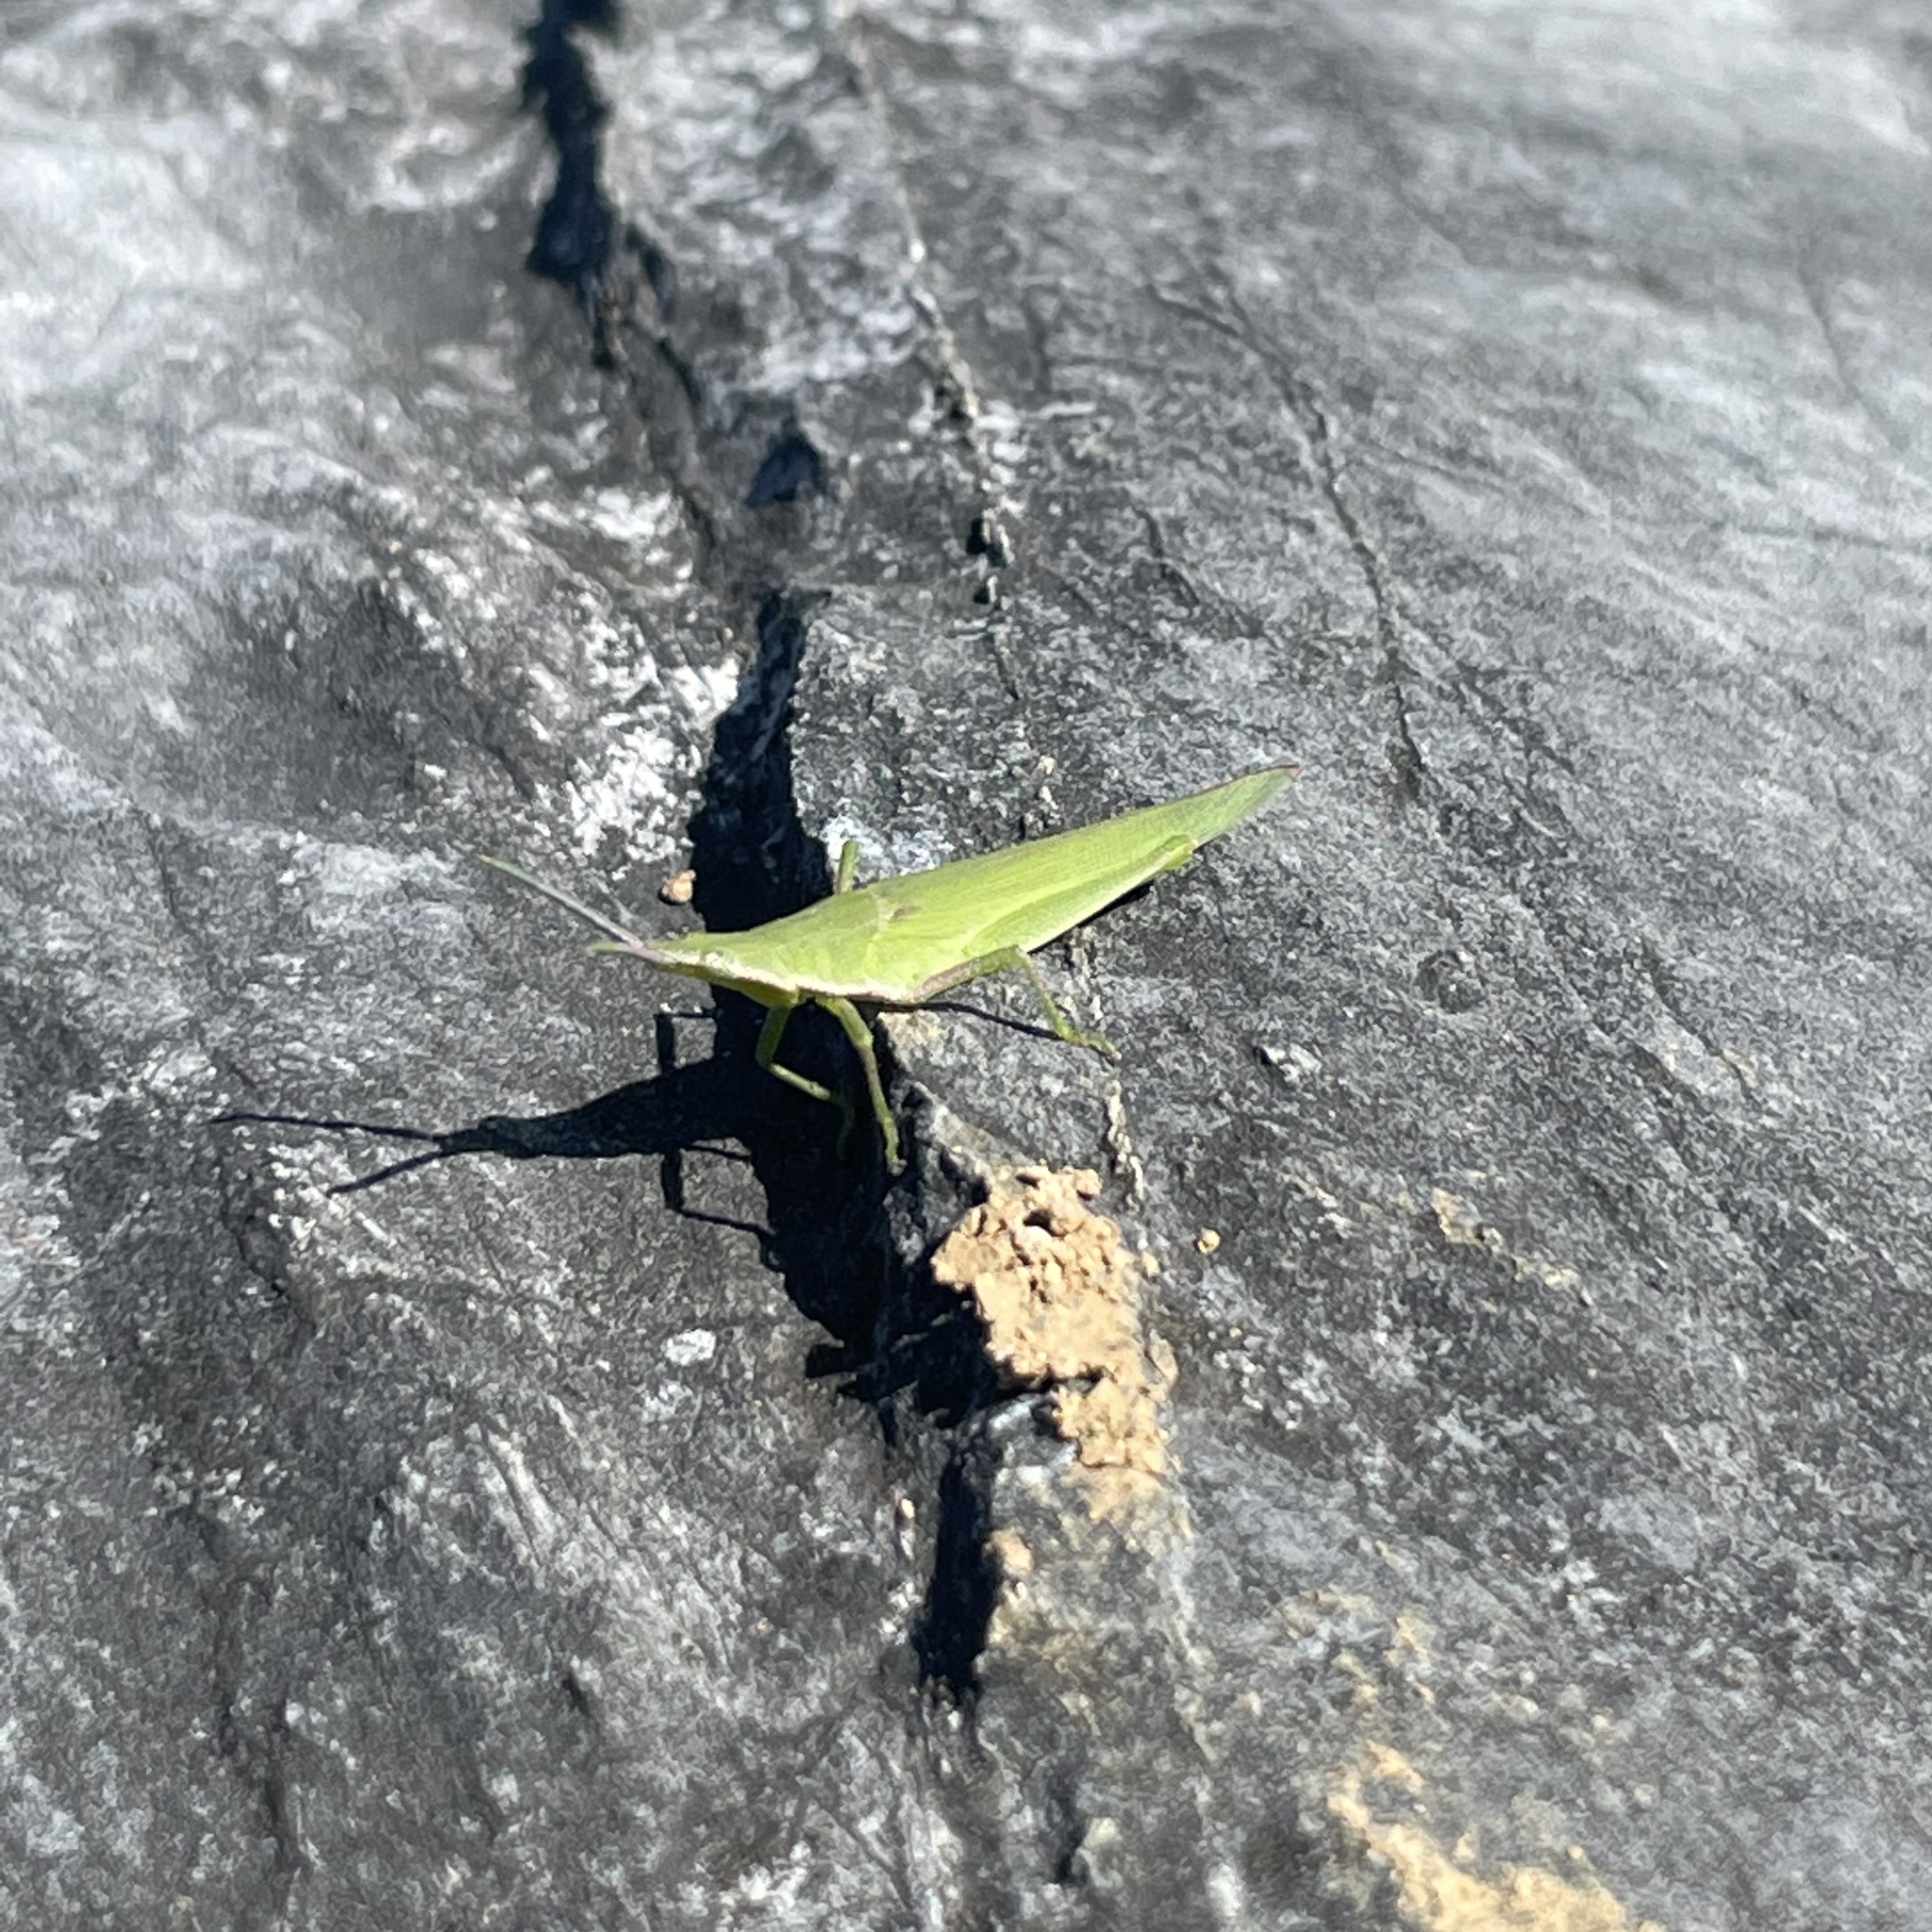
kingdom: Animalia
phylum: Arthropoda
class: Insecta
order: Orthoptera
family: Pyrgomorphidae
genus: Atractomorpha
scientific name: Atractomorpha sinensis
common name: Pinkwinged grasshopper
